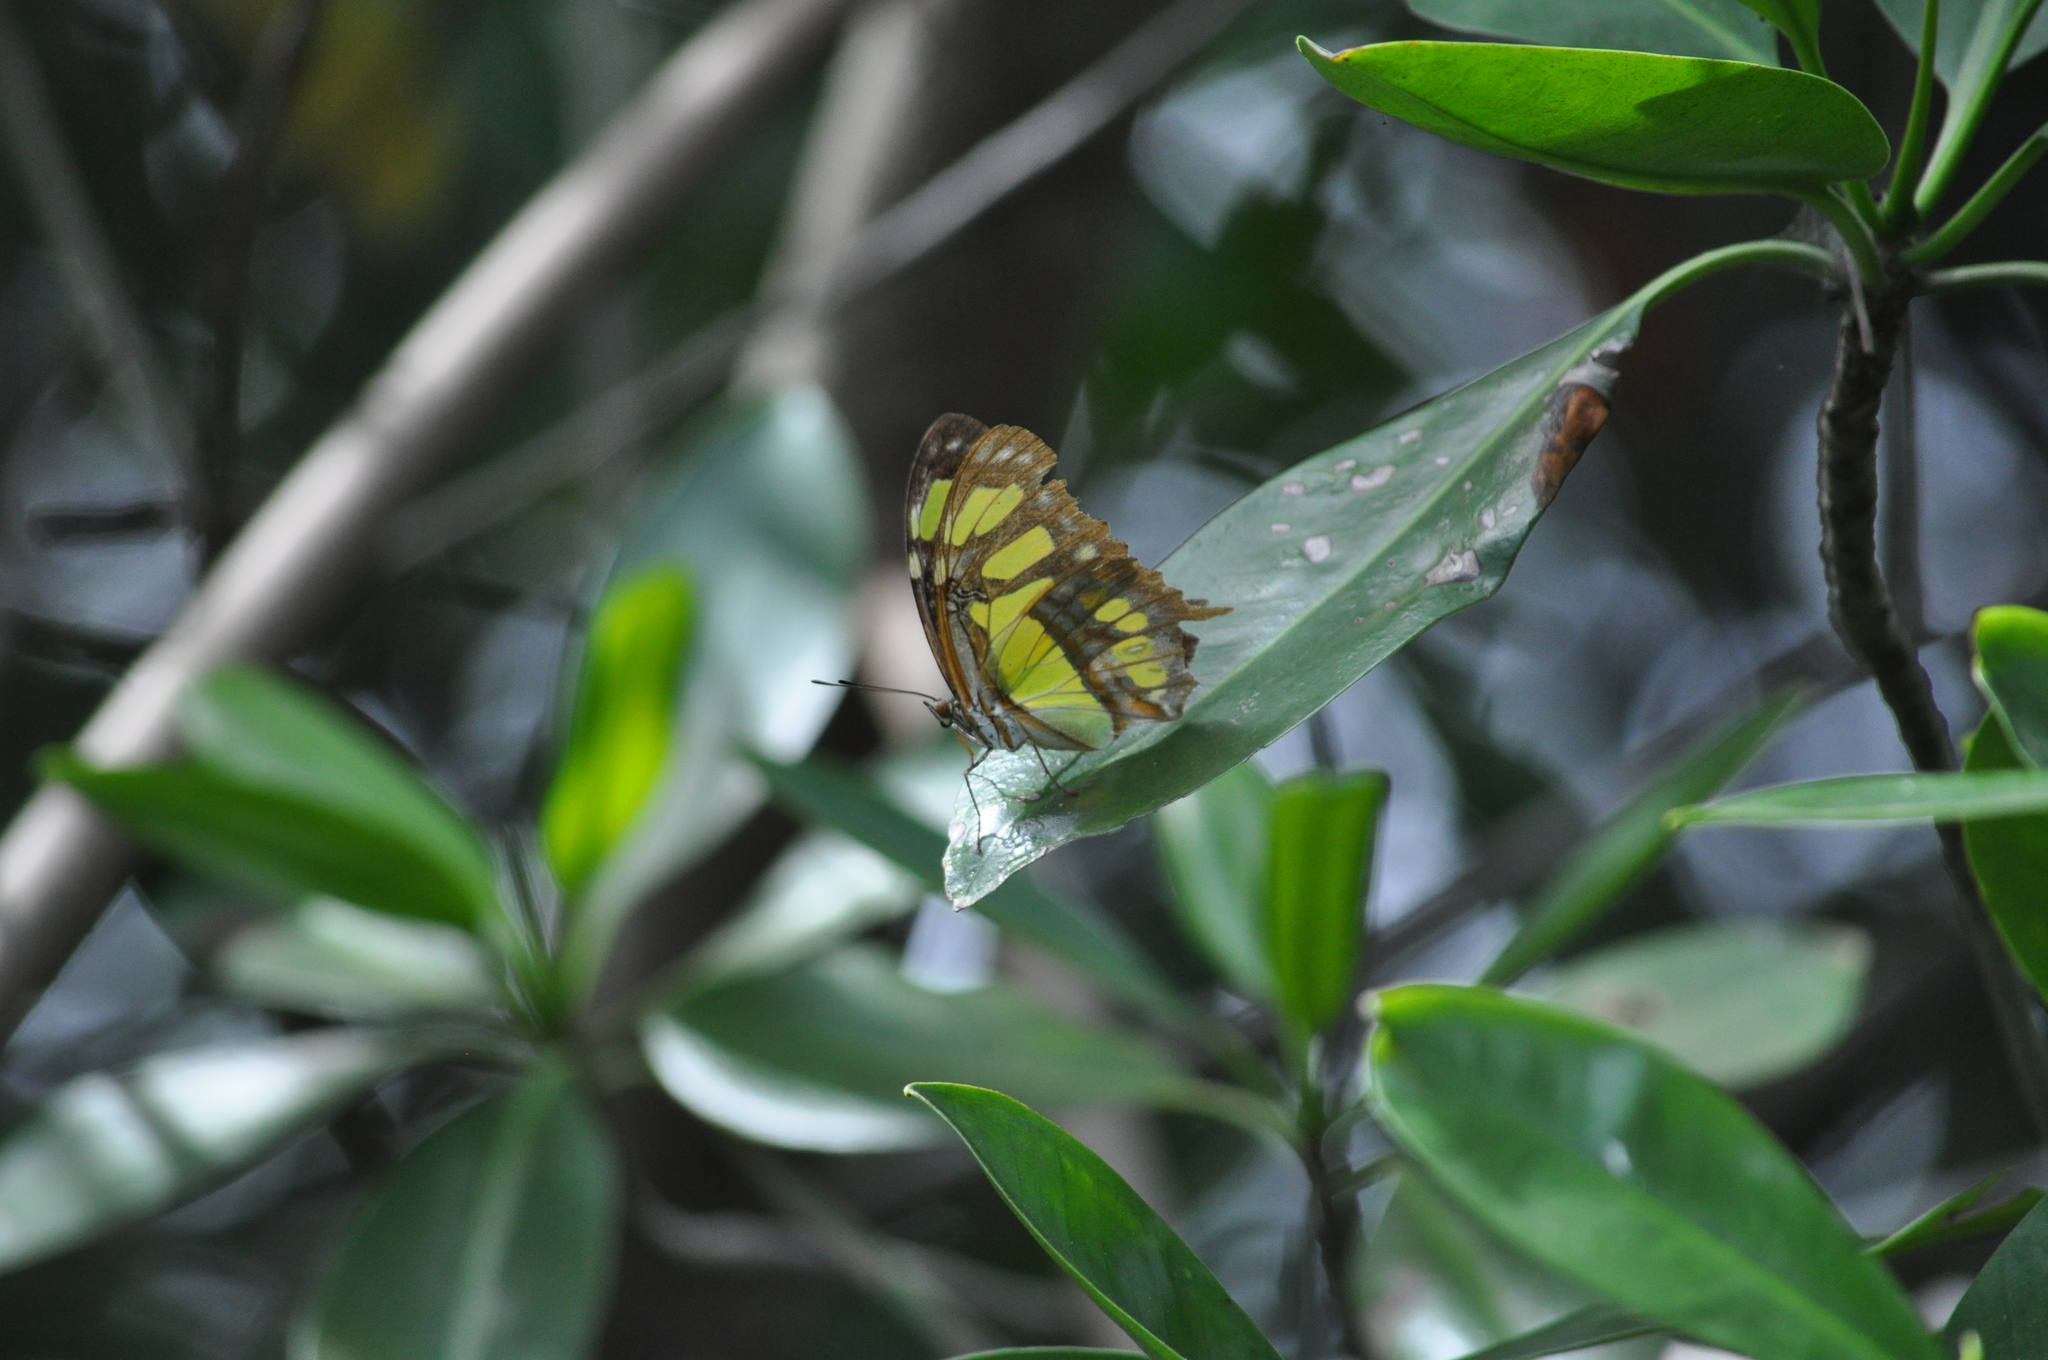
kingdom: Animalia
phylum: Arthropoda
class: Insecta
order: Lepidoptera
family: Nymphalidae
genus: Siproeta
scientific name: Siproeta stelenes
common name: Malachite
